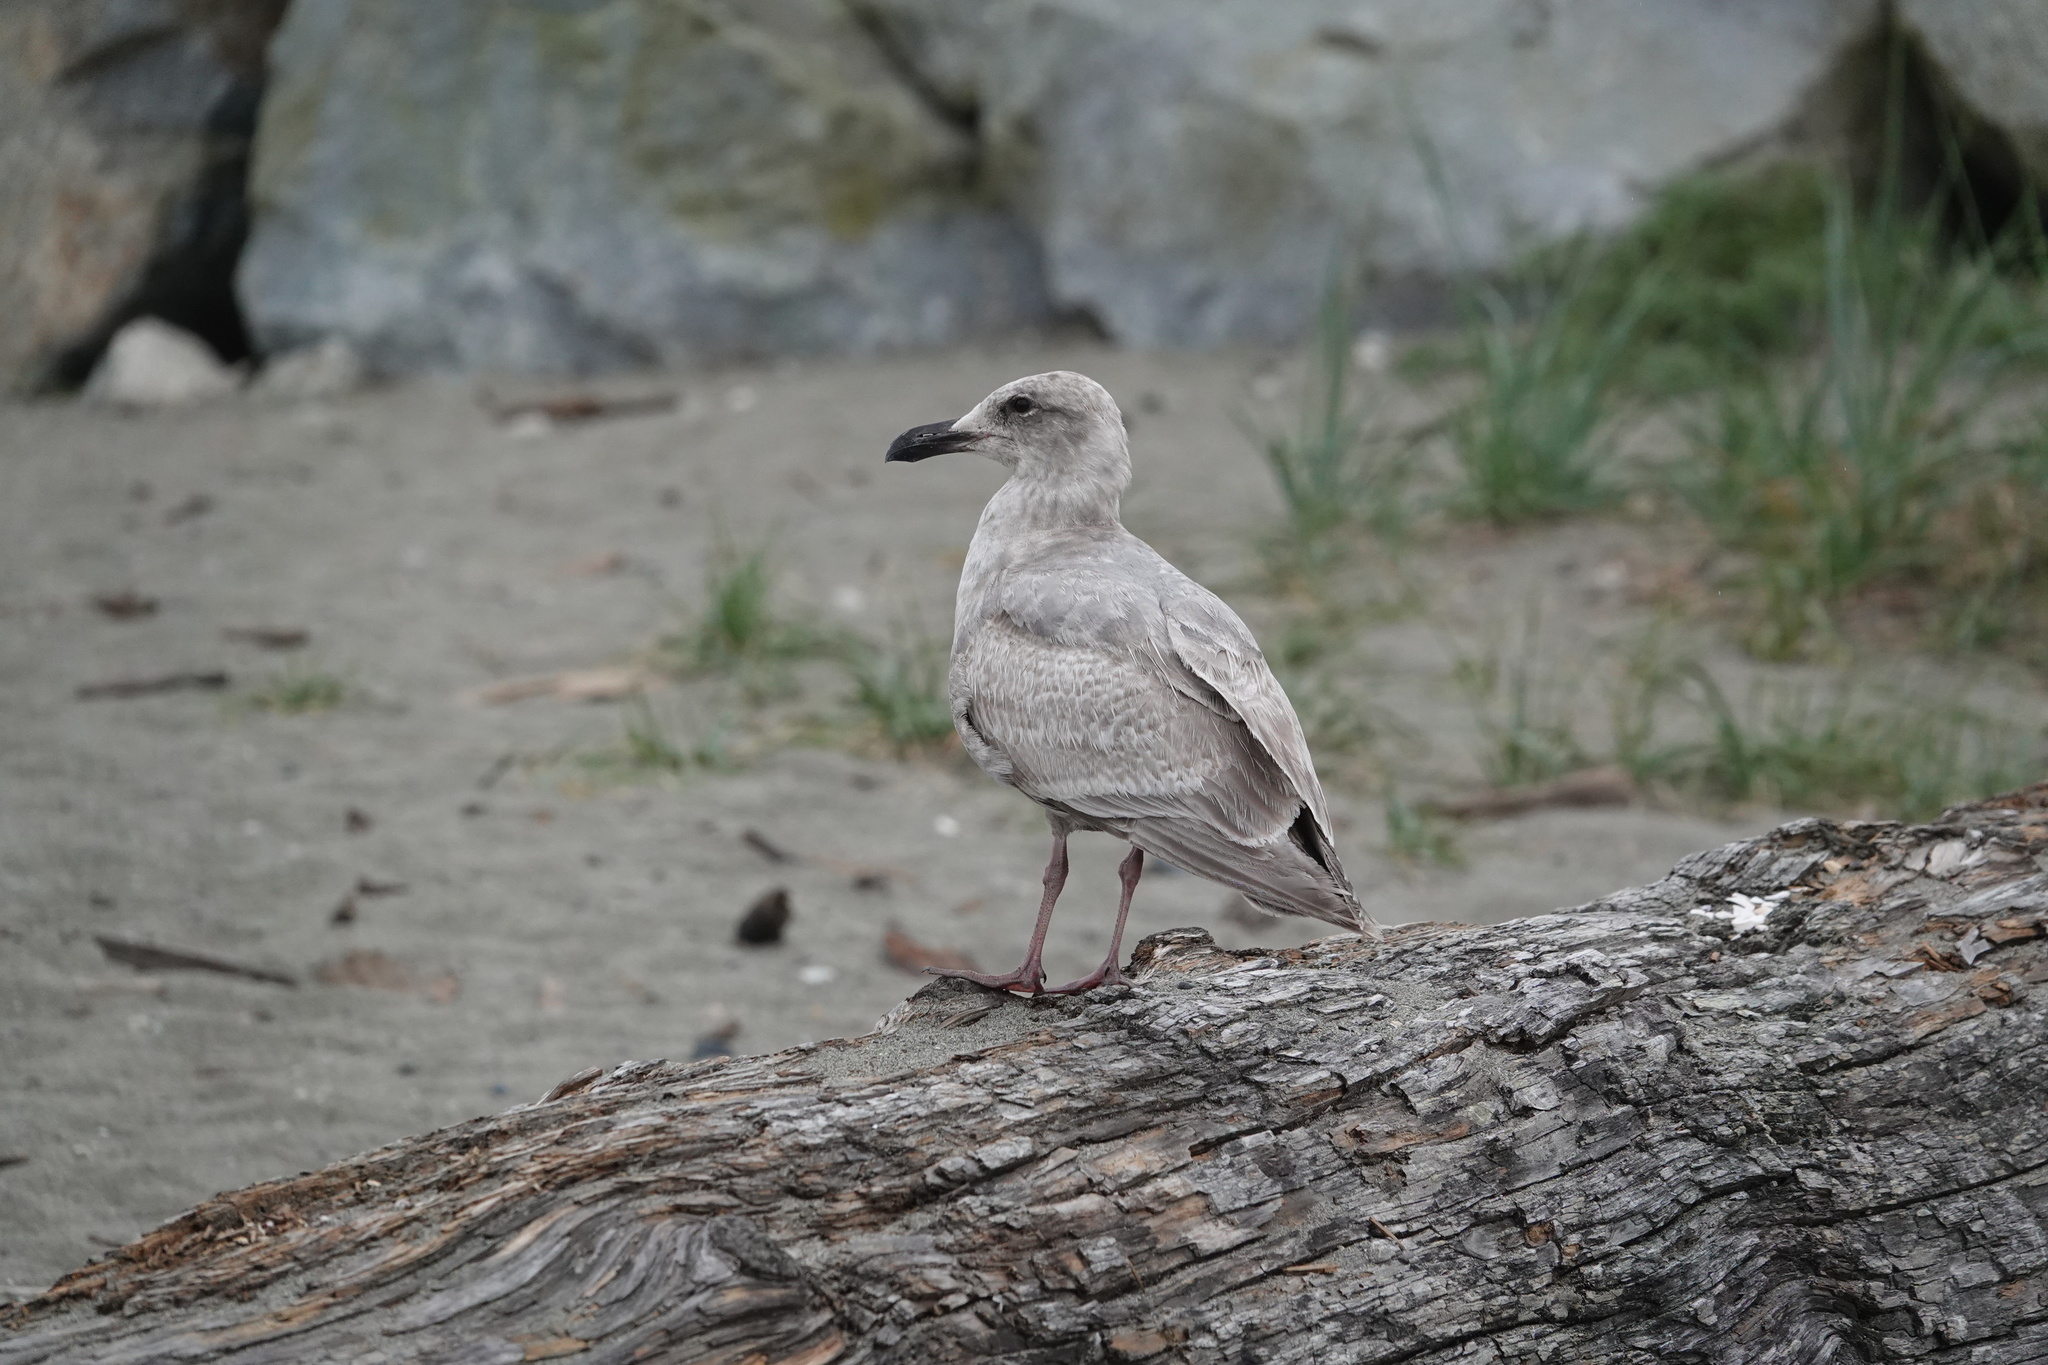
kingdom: Animalia
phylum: Chordata
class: Aves
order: Charadriiformes
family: Laridae
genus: Larus
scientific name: Larus glaucescens
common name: Glaucous-winged gull
